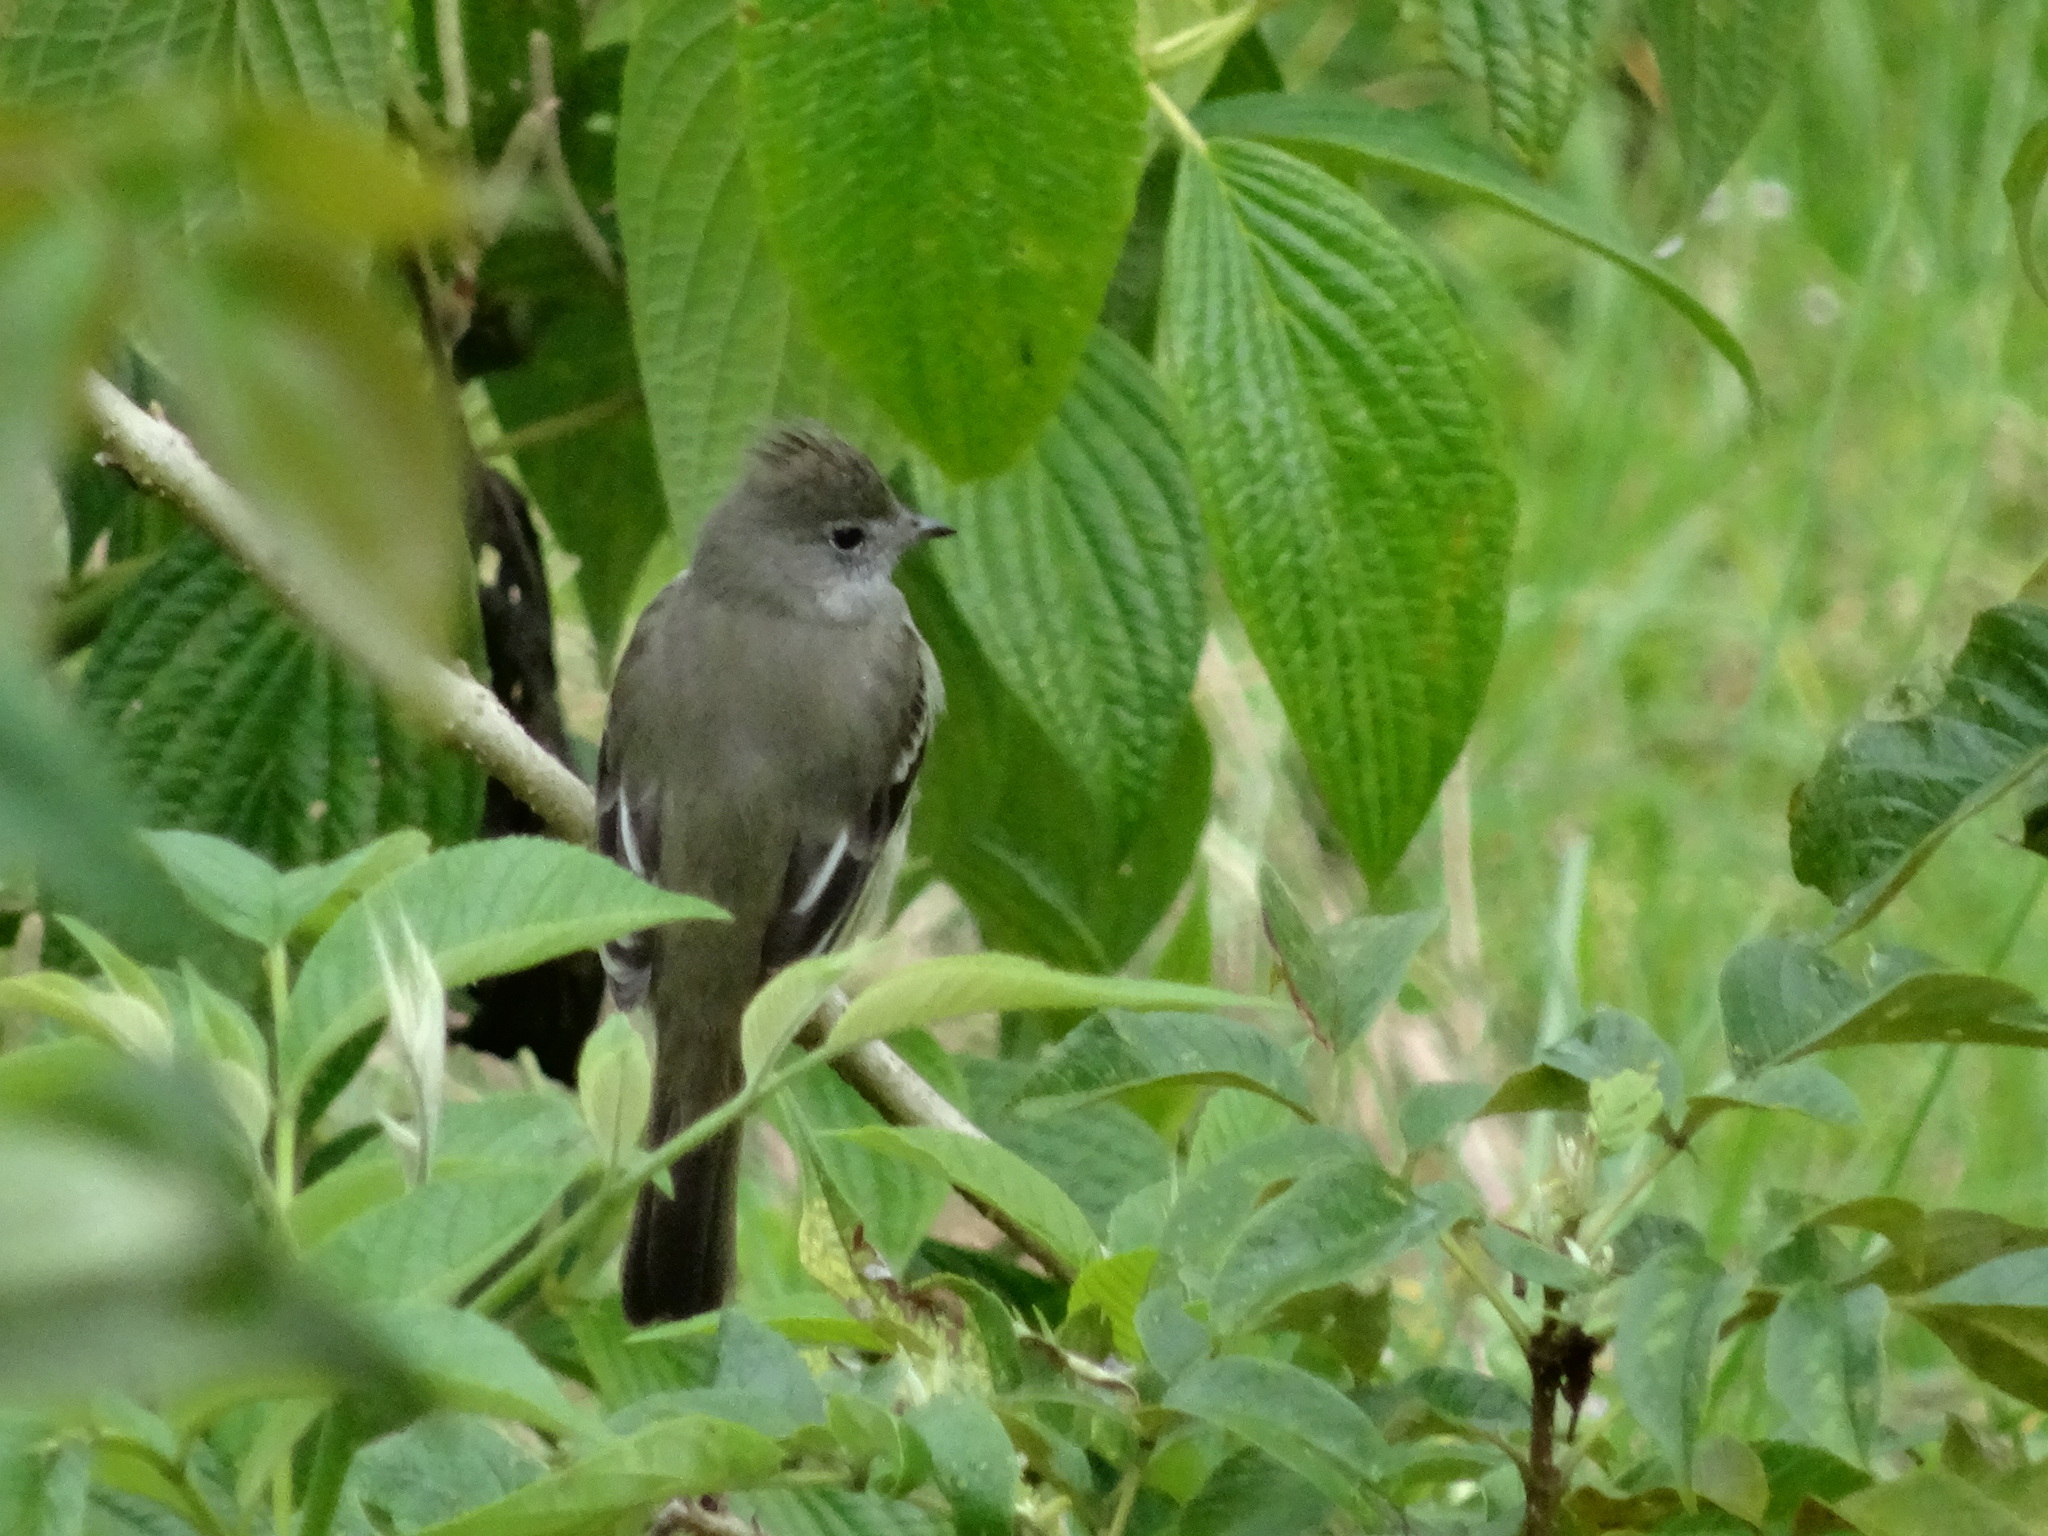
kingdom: Animalia
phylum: Chordata
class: Aves
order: Passeriformes
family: Tyrannidae
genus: Elaenia
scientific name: Elaenia flavogaster
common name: Yellow-bellied elaenia
